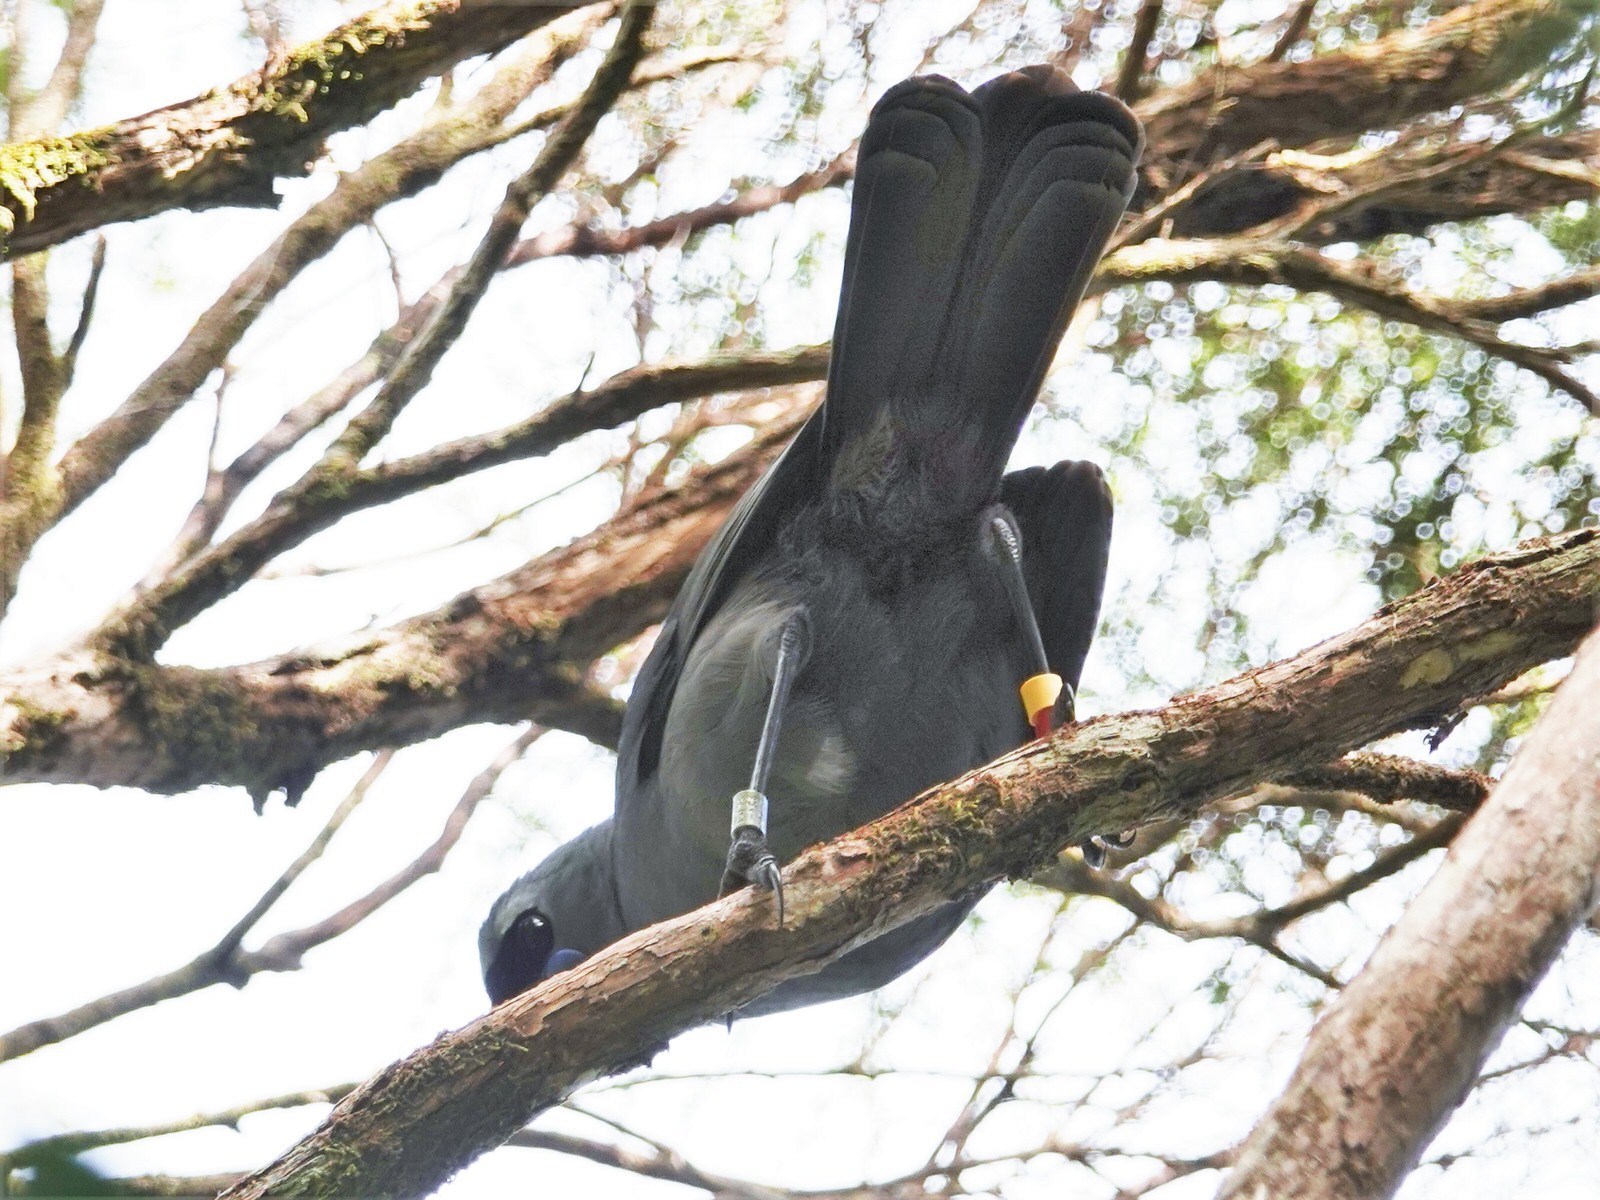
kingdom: Animalia
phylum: Chordata
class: Aves
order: Passeriformes
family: Callaeatidae
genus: Callaeas
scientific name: Callaeas cinereus
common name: South island kokako
